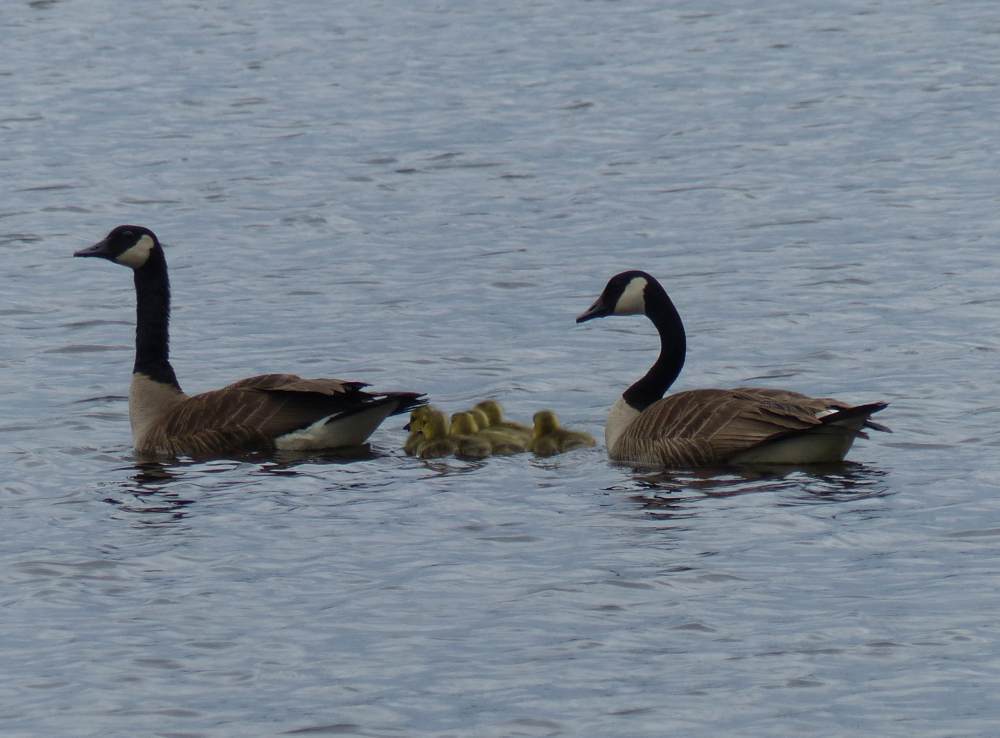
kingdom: Animalia
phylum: Chordata
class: Aves
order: Anseriformes
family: Anatidae
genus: Branta
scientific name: Branta canadensis
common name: Canada goose
